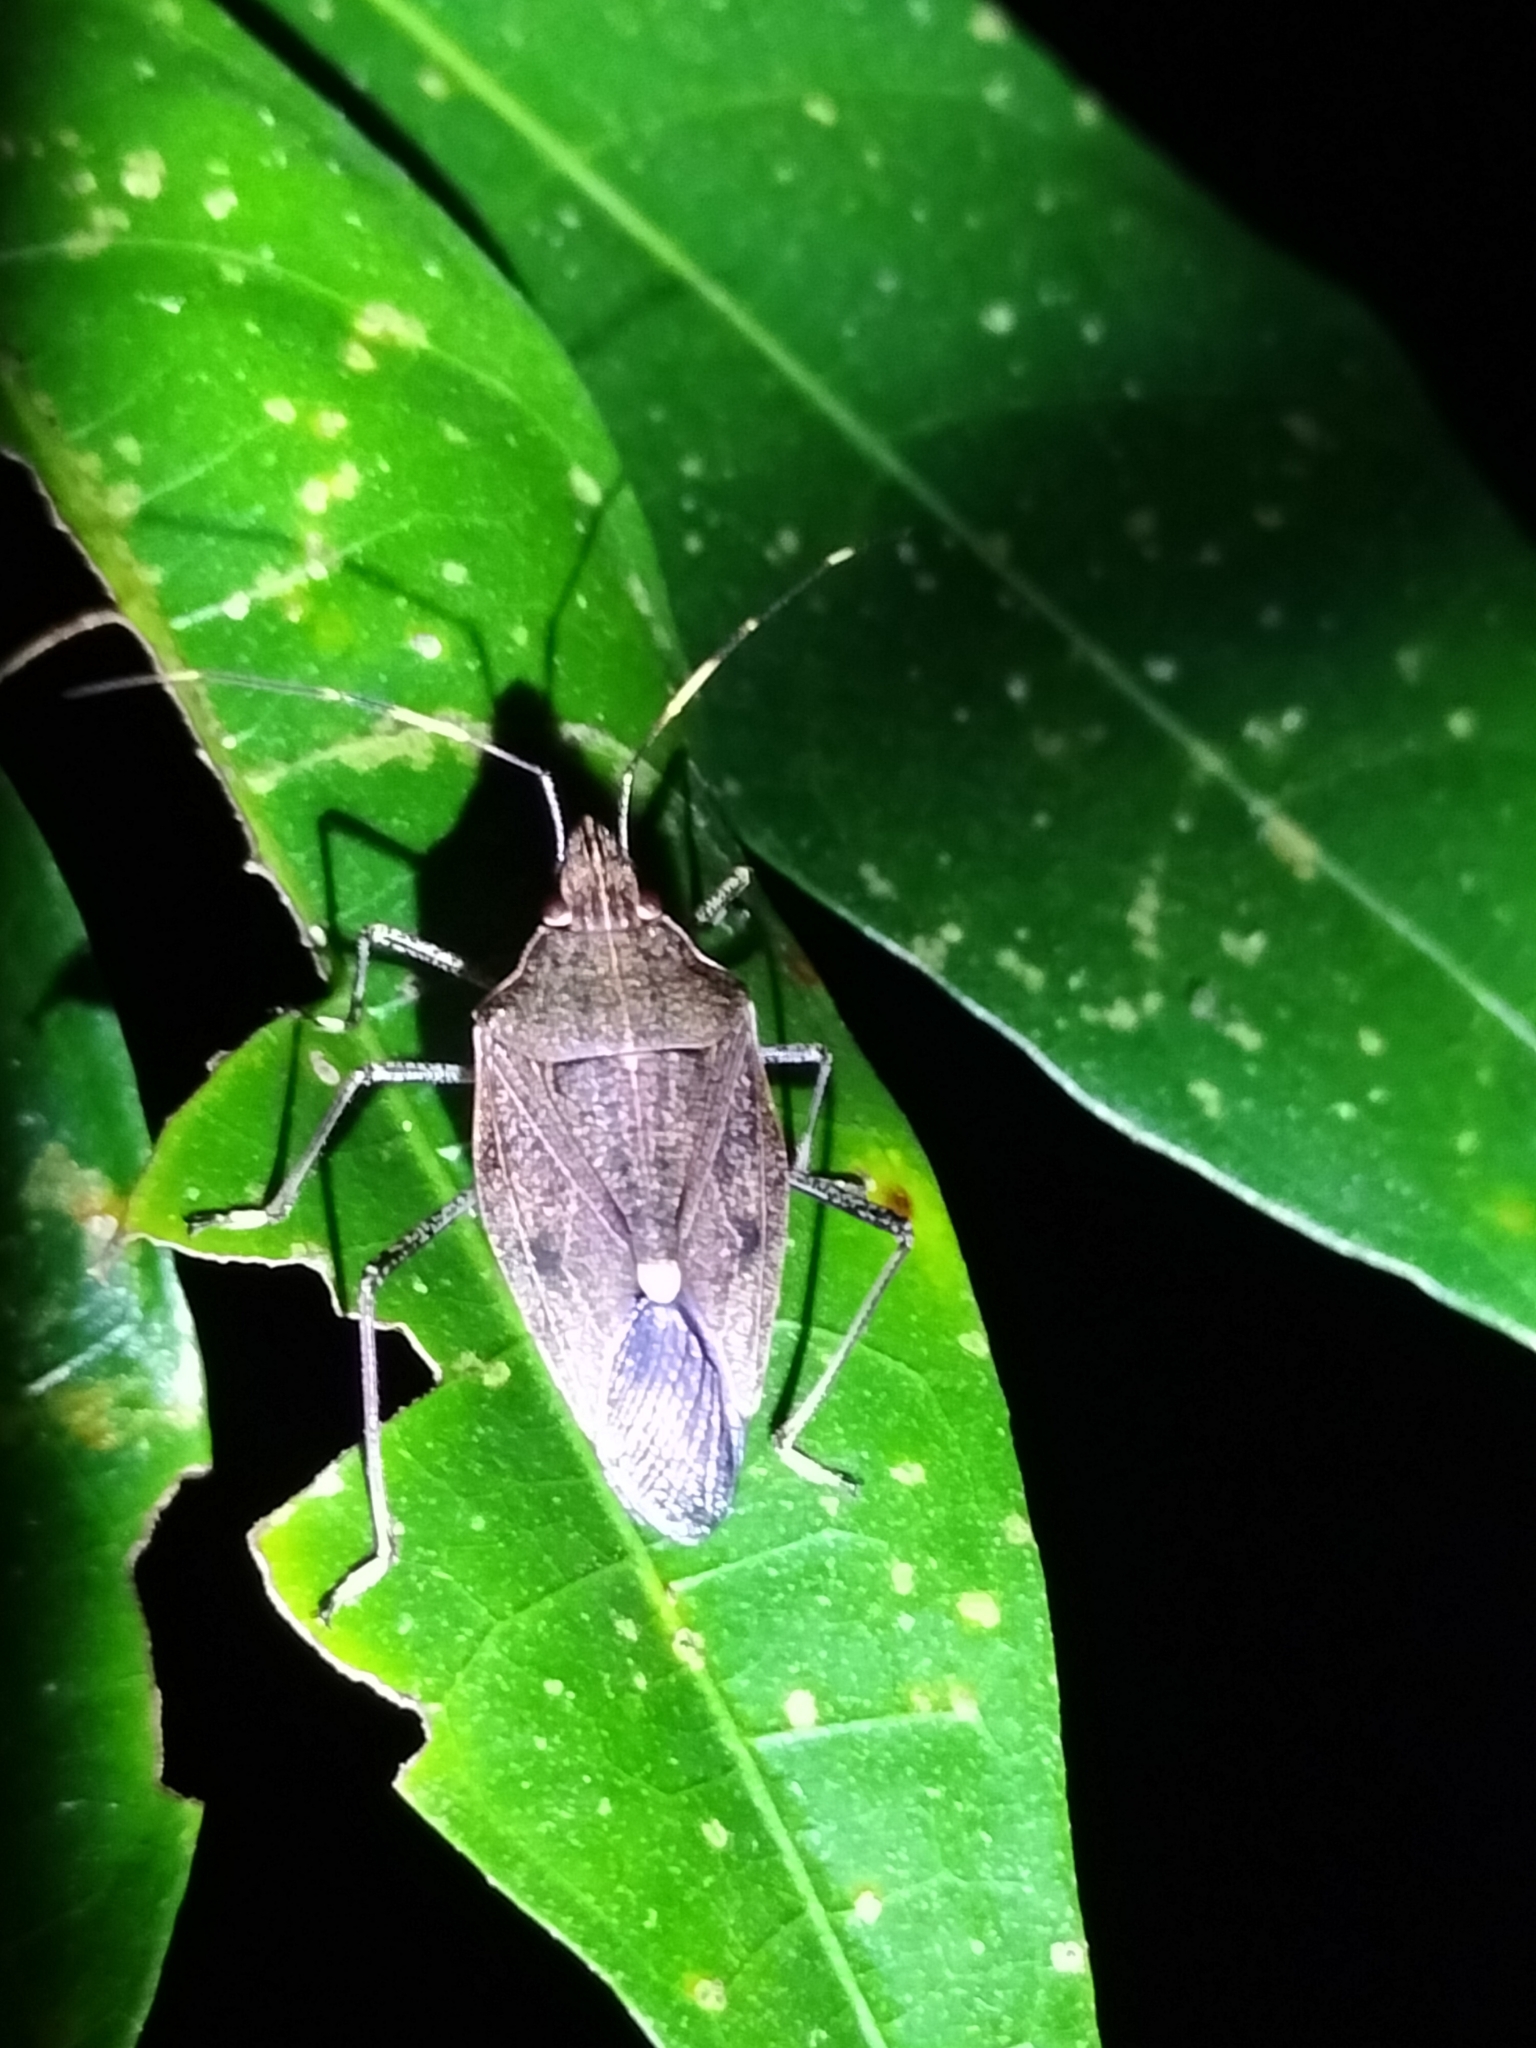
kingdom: Animalia
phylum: Arthropoda
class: Insecta
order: Hemiptera
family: Pentatomidae
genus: Poecilometis
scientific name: Poecilometis
